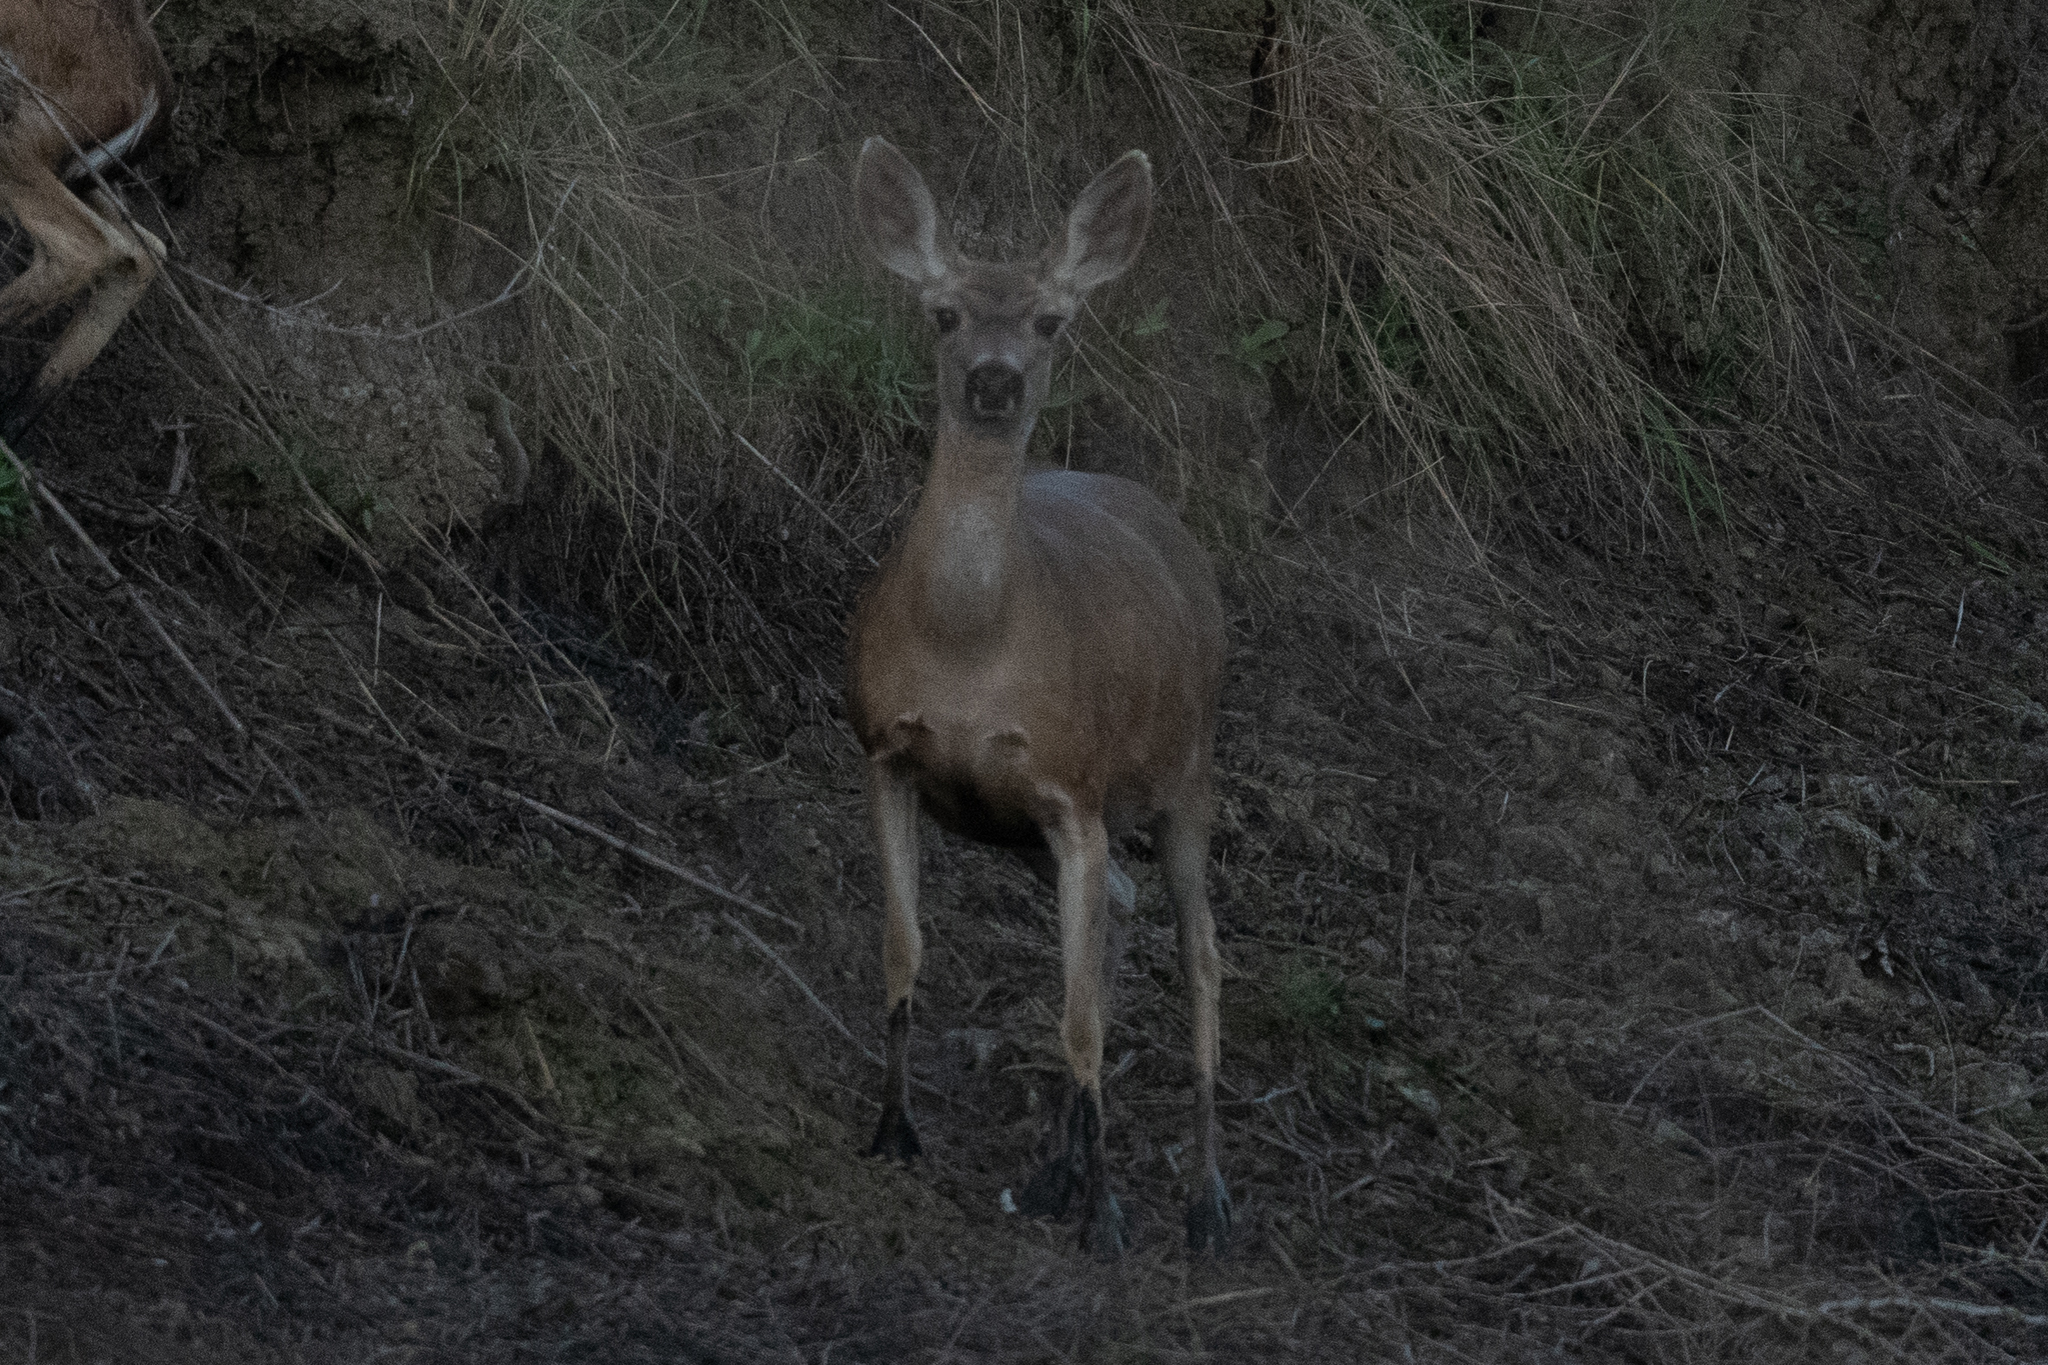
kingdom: Animalia
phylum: Chordata
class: Mammalia
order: Artiodactyla
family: Cervidae
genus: Odocoileus
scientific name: Odocoileus hemionus
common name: Mule deer
